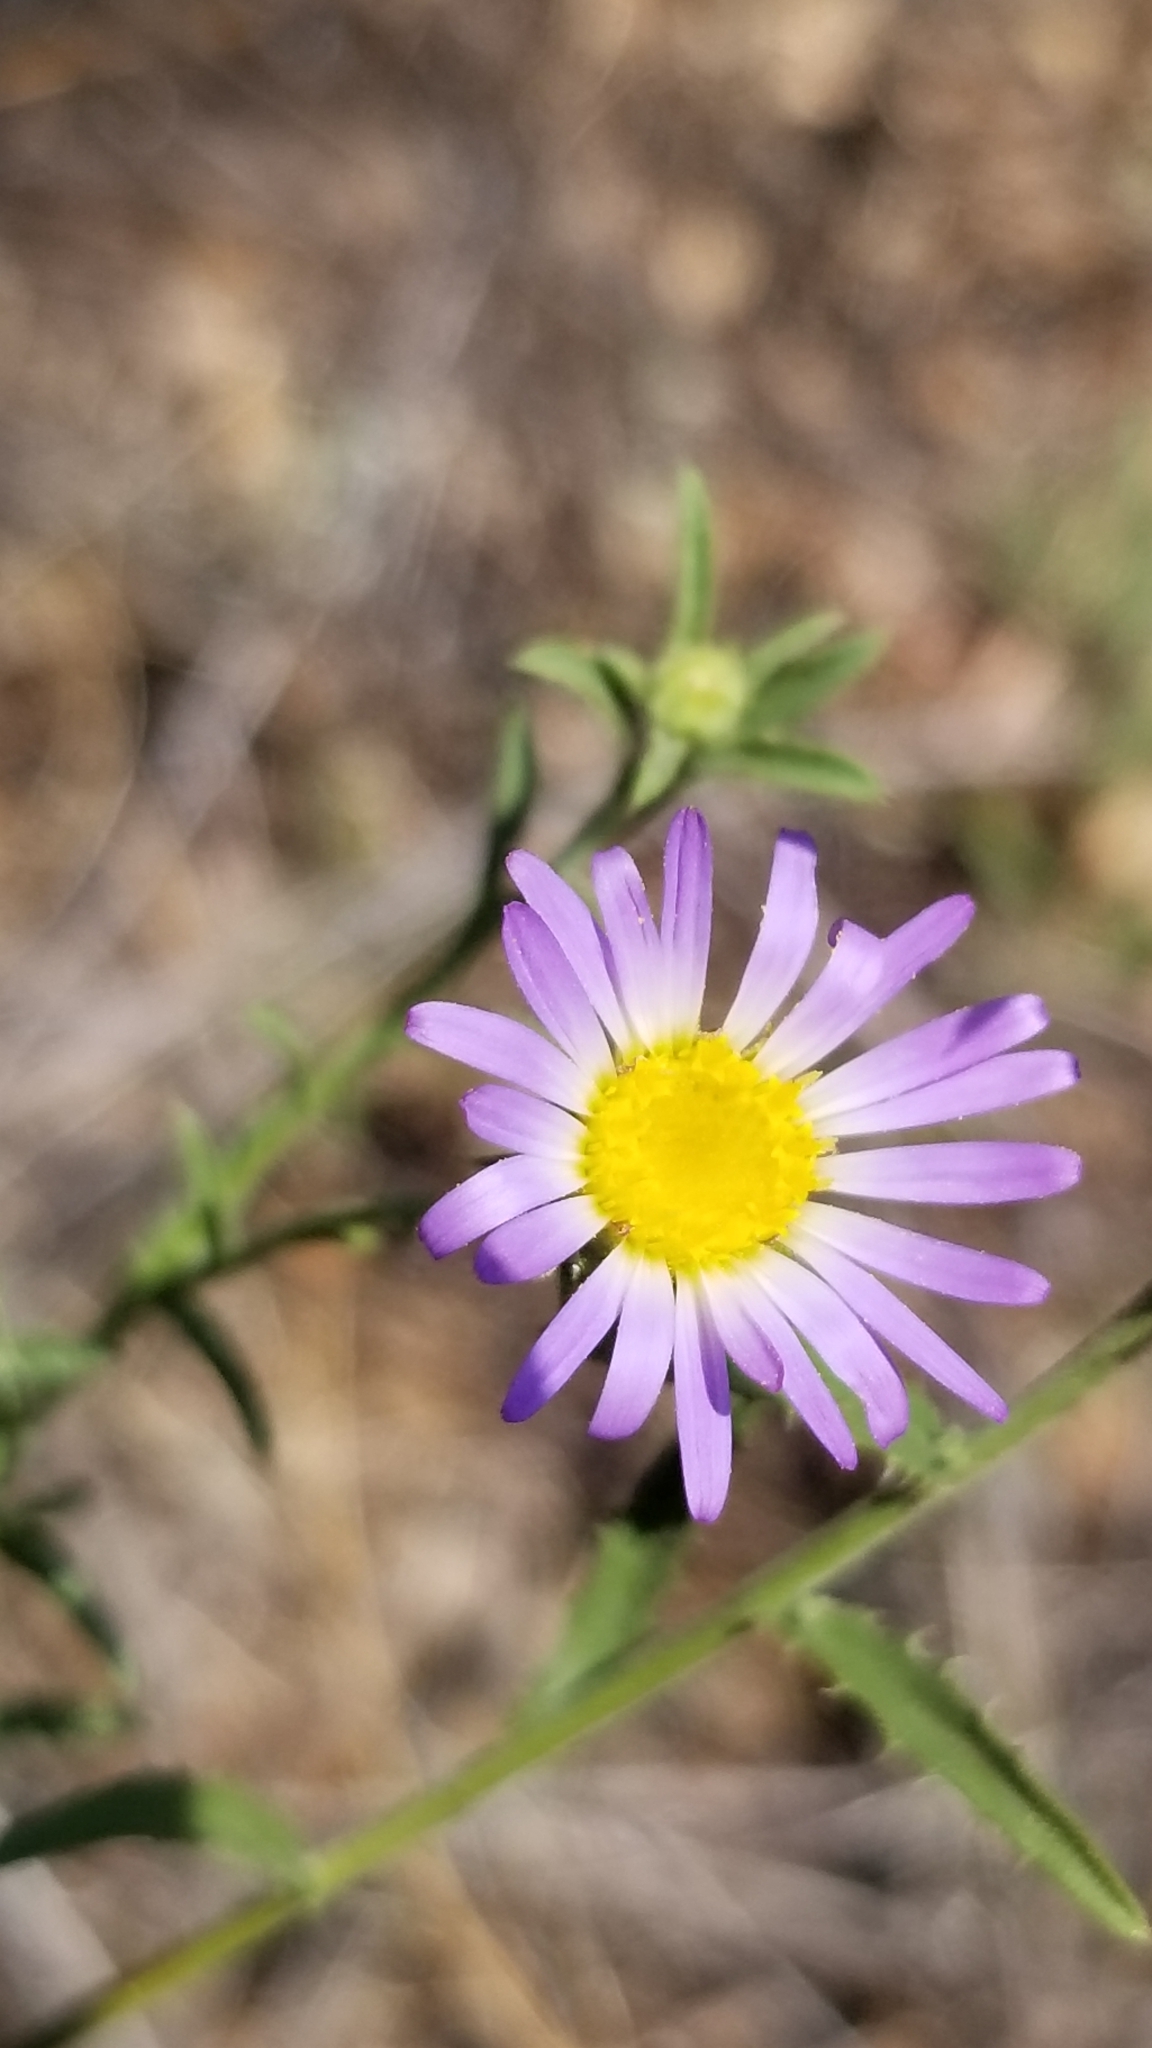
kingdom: Plantae
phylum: Tracheophyta
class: Magnoliopsida
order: Asterales
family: Asteraceae
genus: Dieteria
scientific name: Dieteria canescens
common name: Hoary-aster
